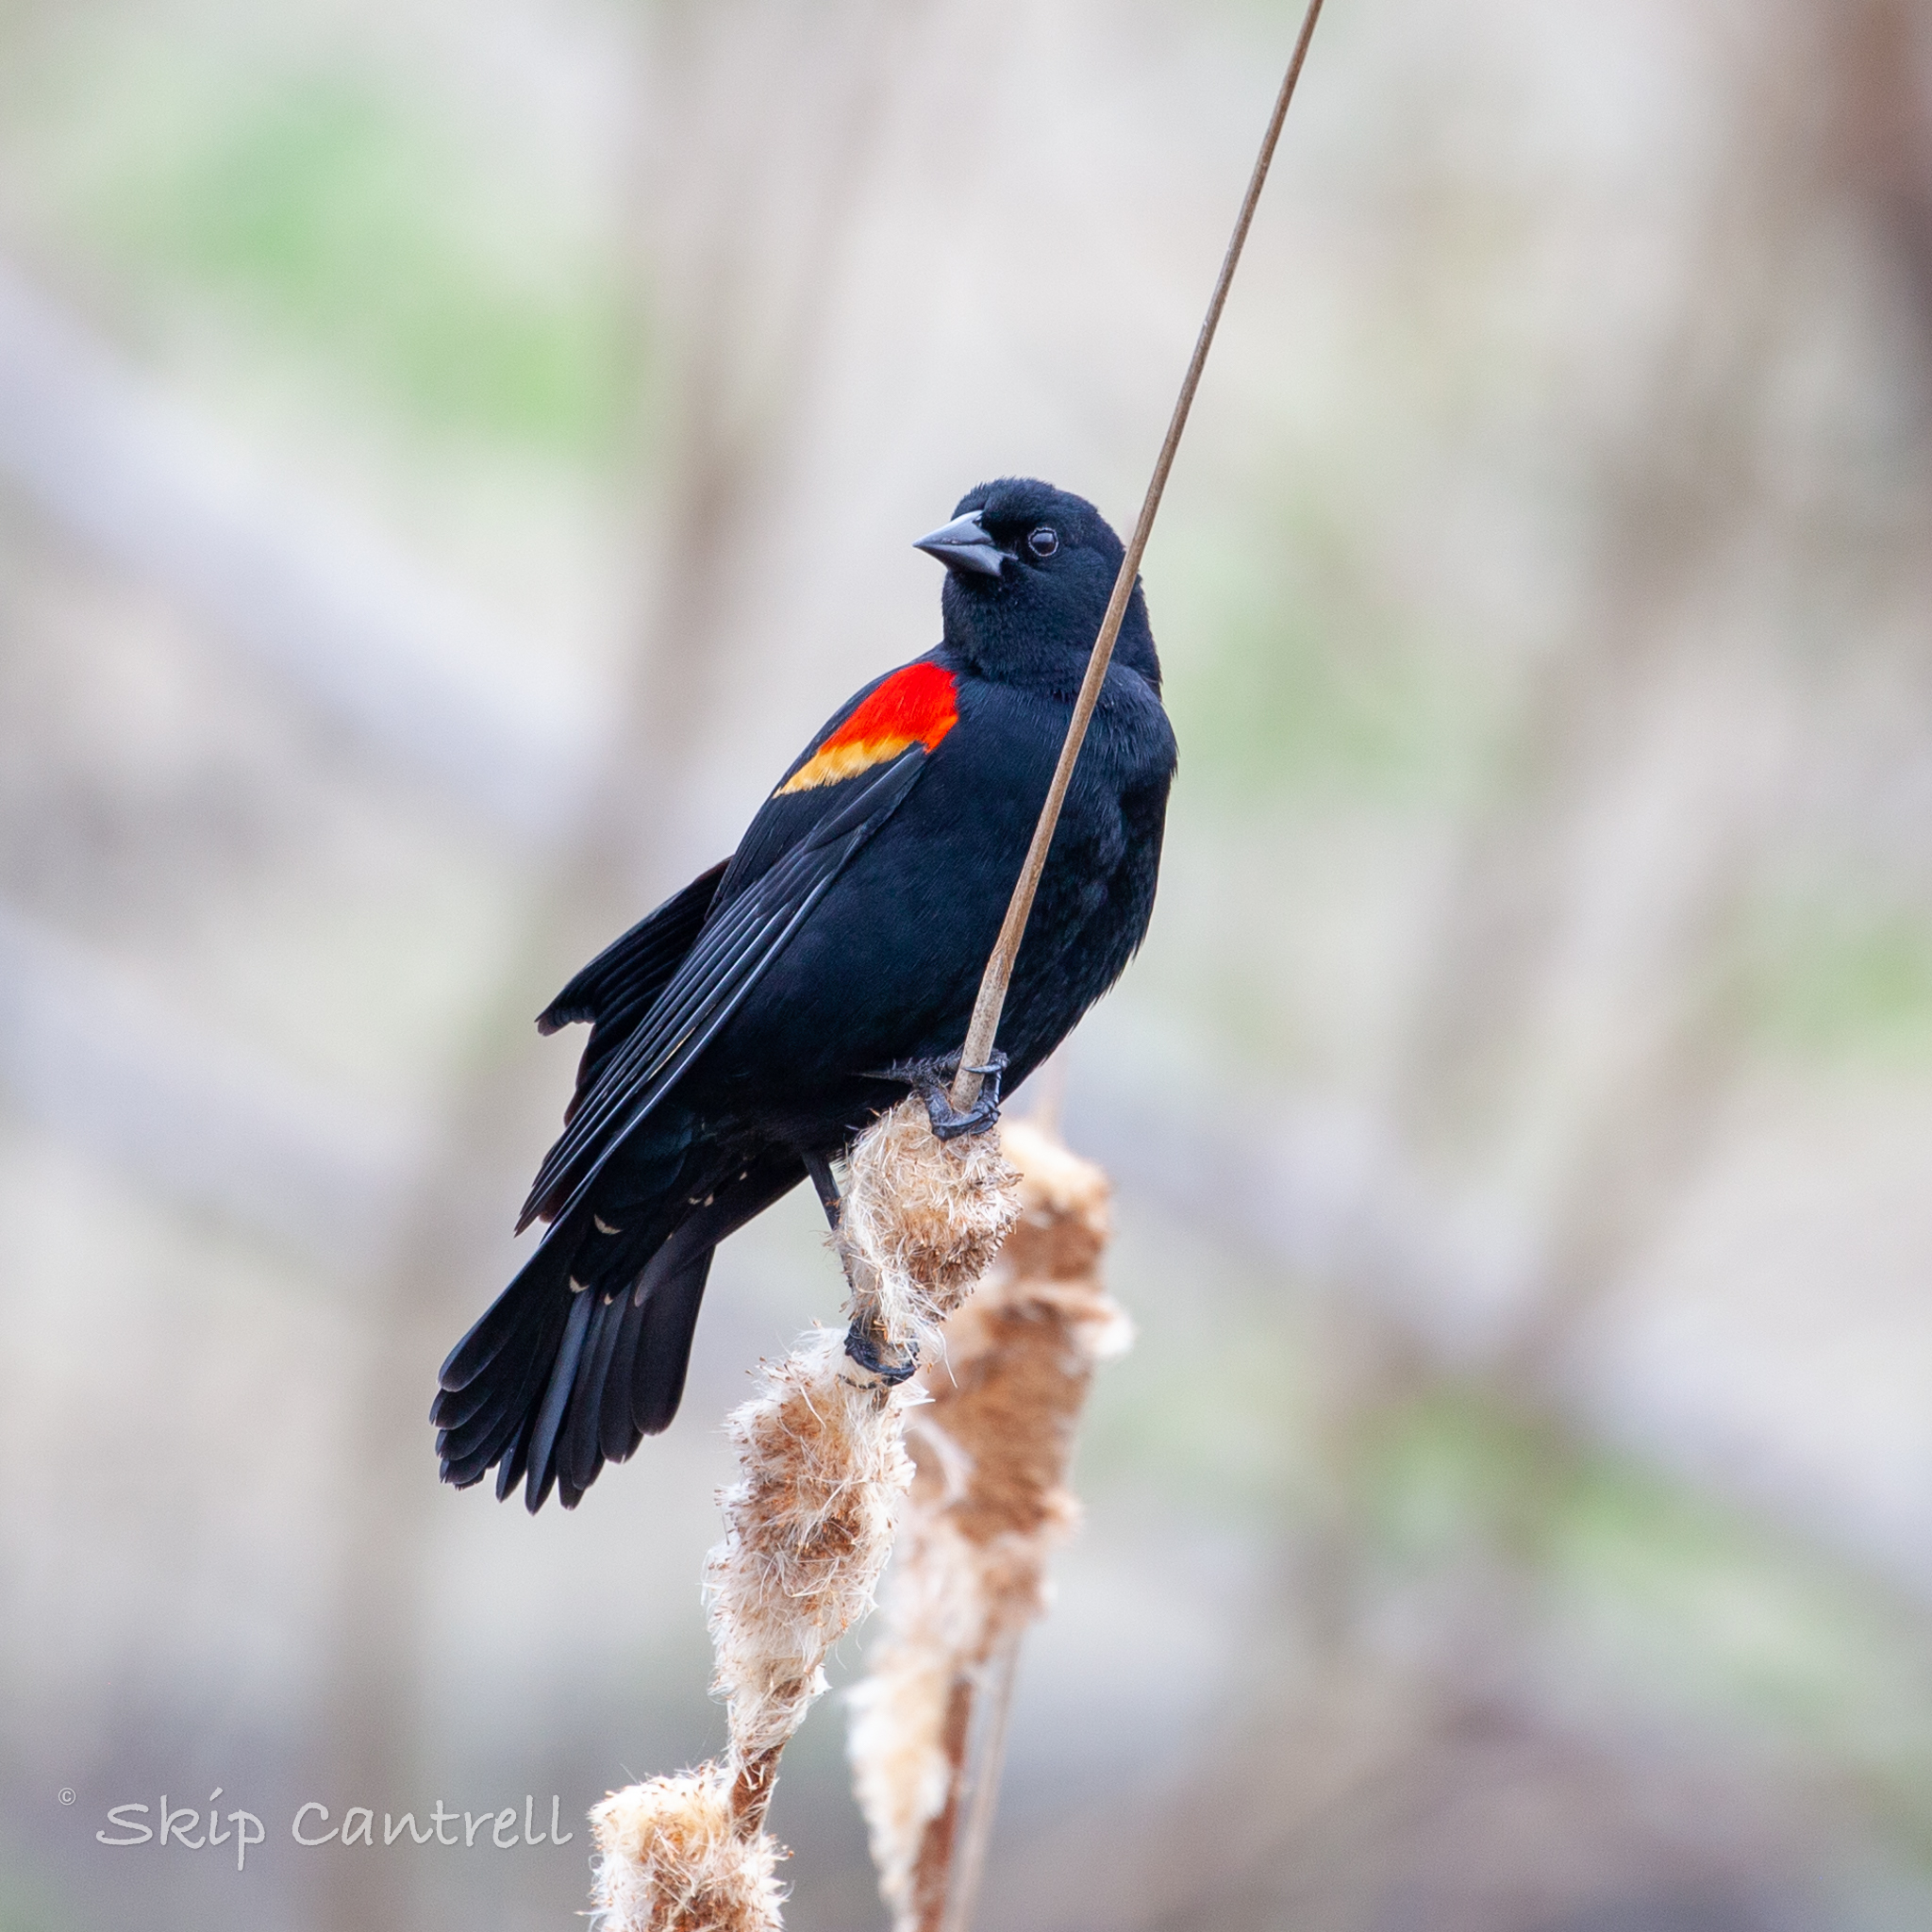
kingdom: Animalia
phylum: Chordata
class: Aves
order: Passeriformes
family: Icteridae
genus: Agelaius
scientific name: Agelaius phoeniceus
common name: Red-winged blackbird
